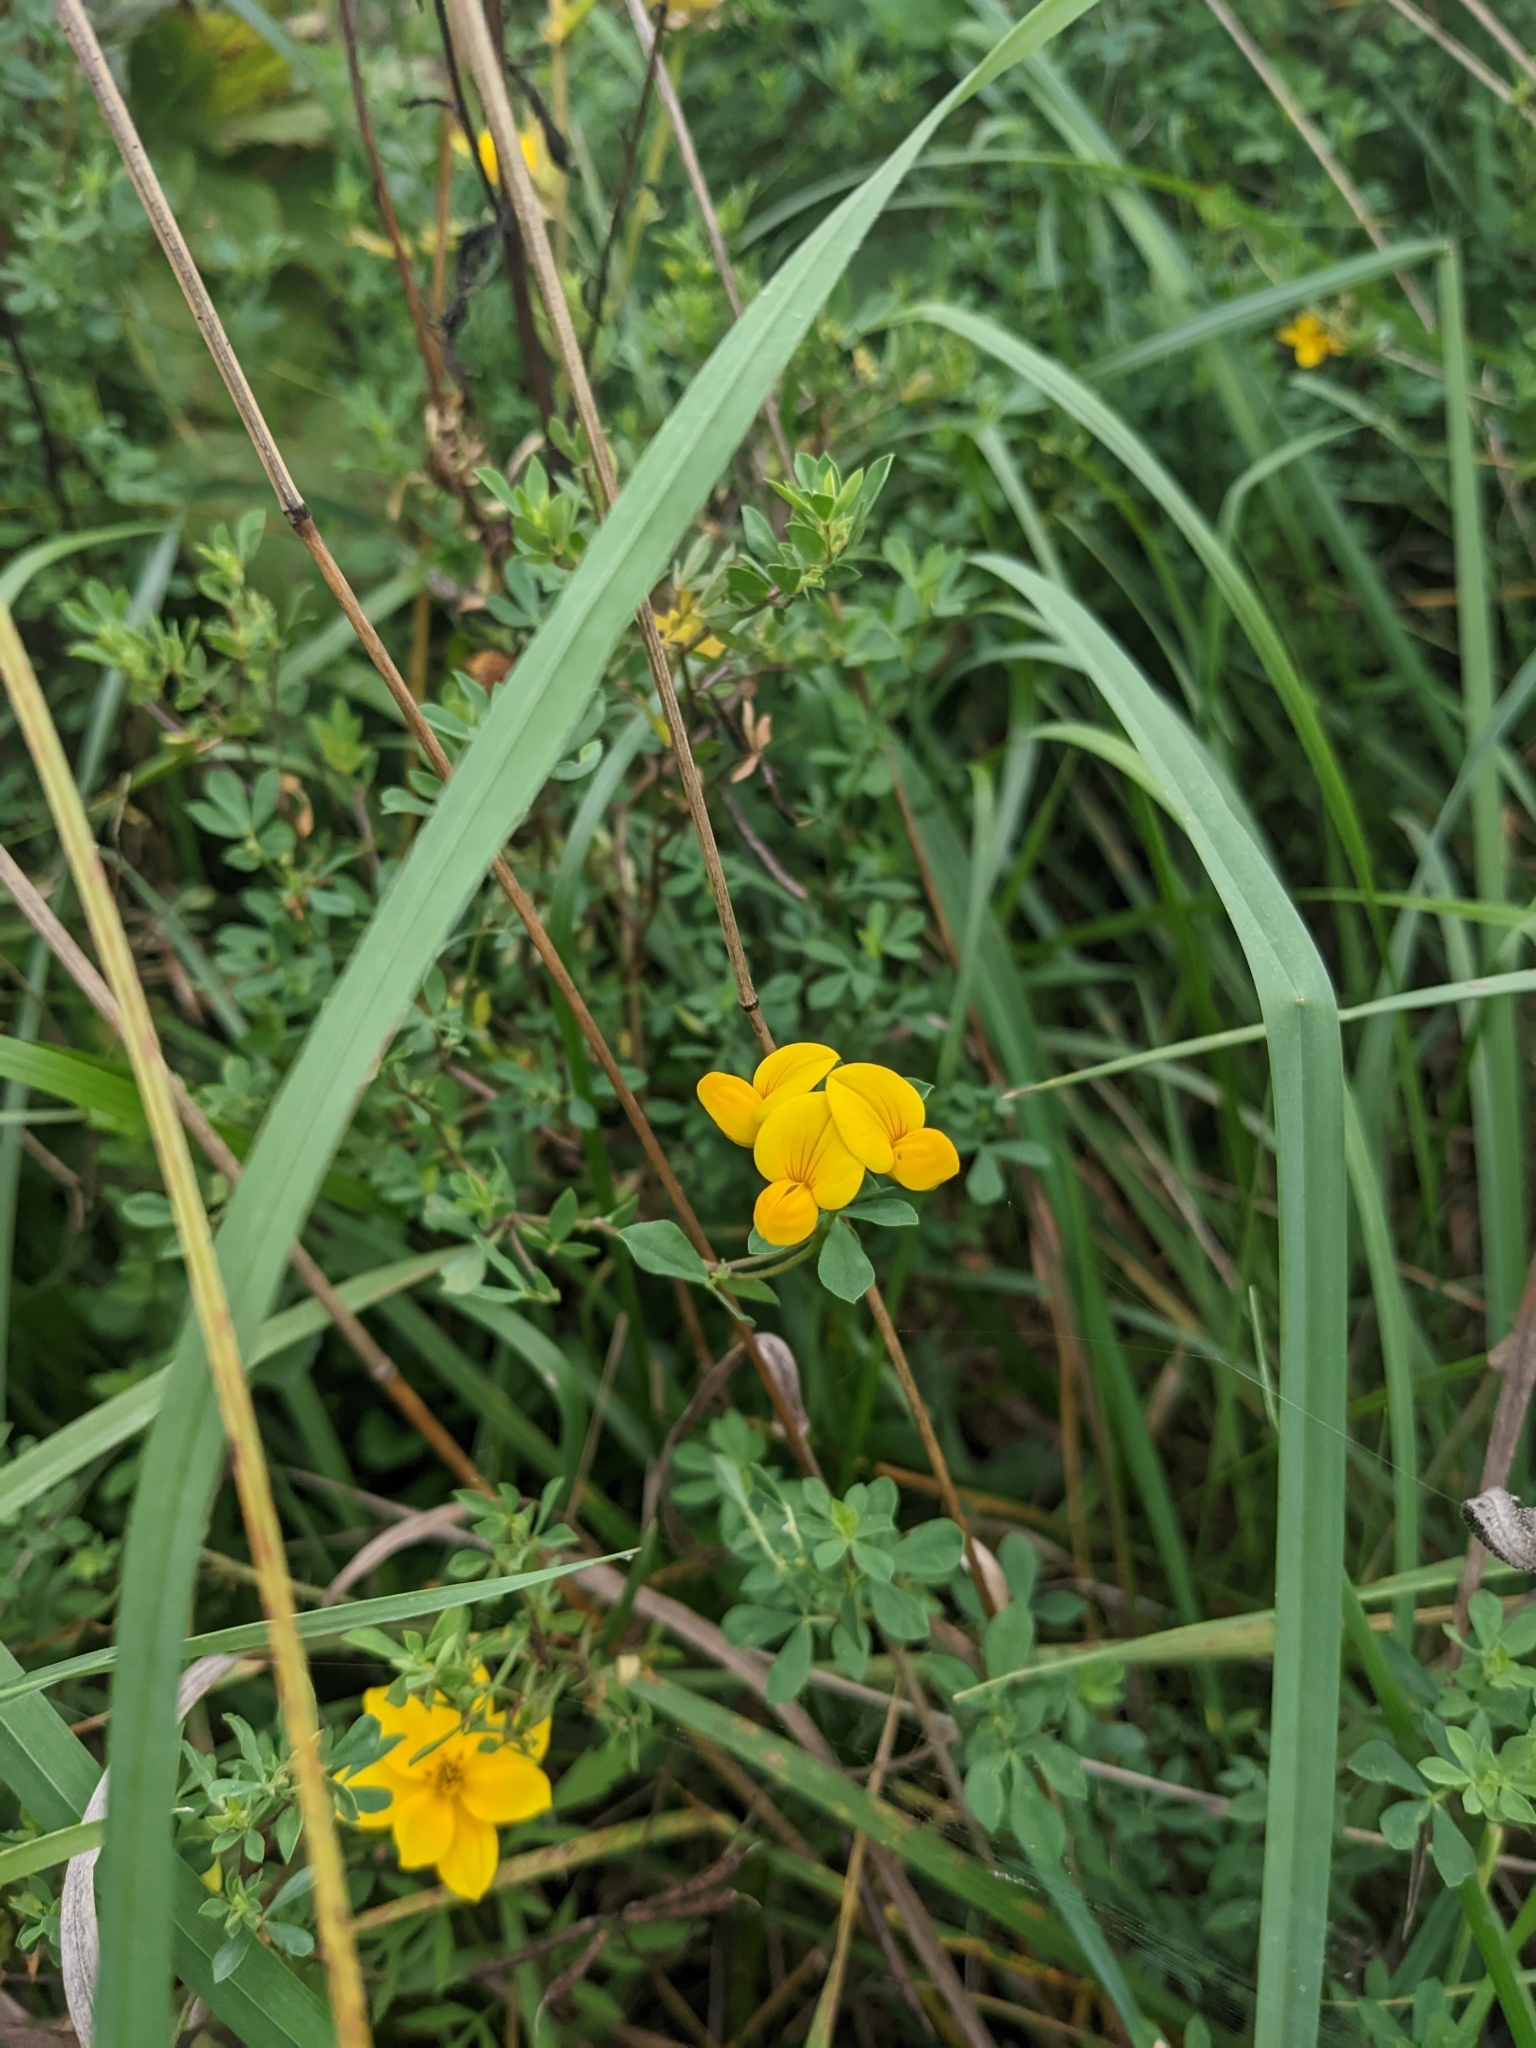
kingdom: Plantae
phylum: Tracheophyta
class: Magnoliopsida
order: Fabales
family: Fabaceae
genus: Lotus
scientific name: Lotus corniculatus
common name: Common bird's-foot-trefoil
